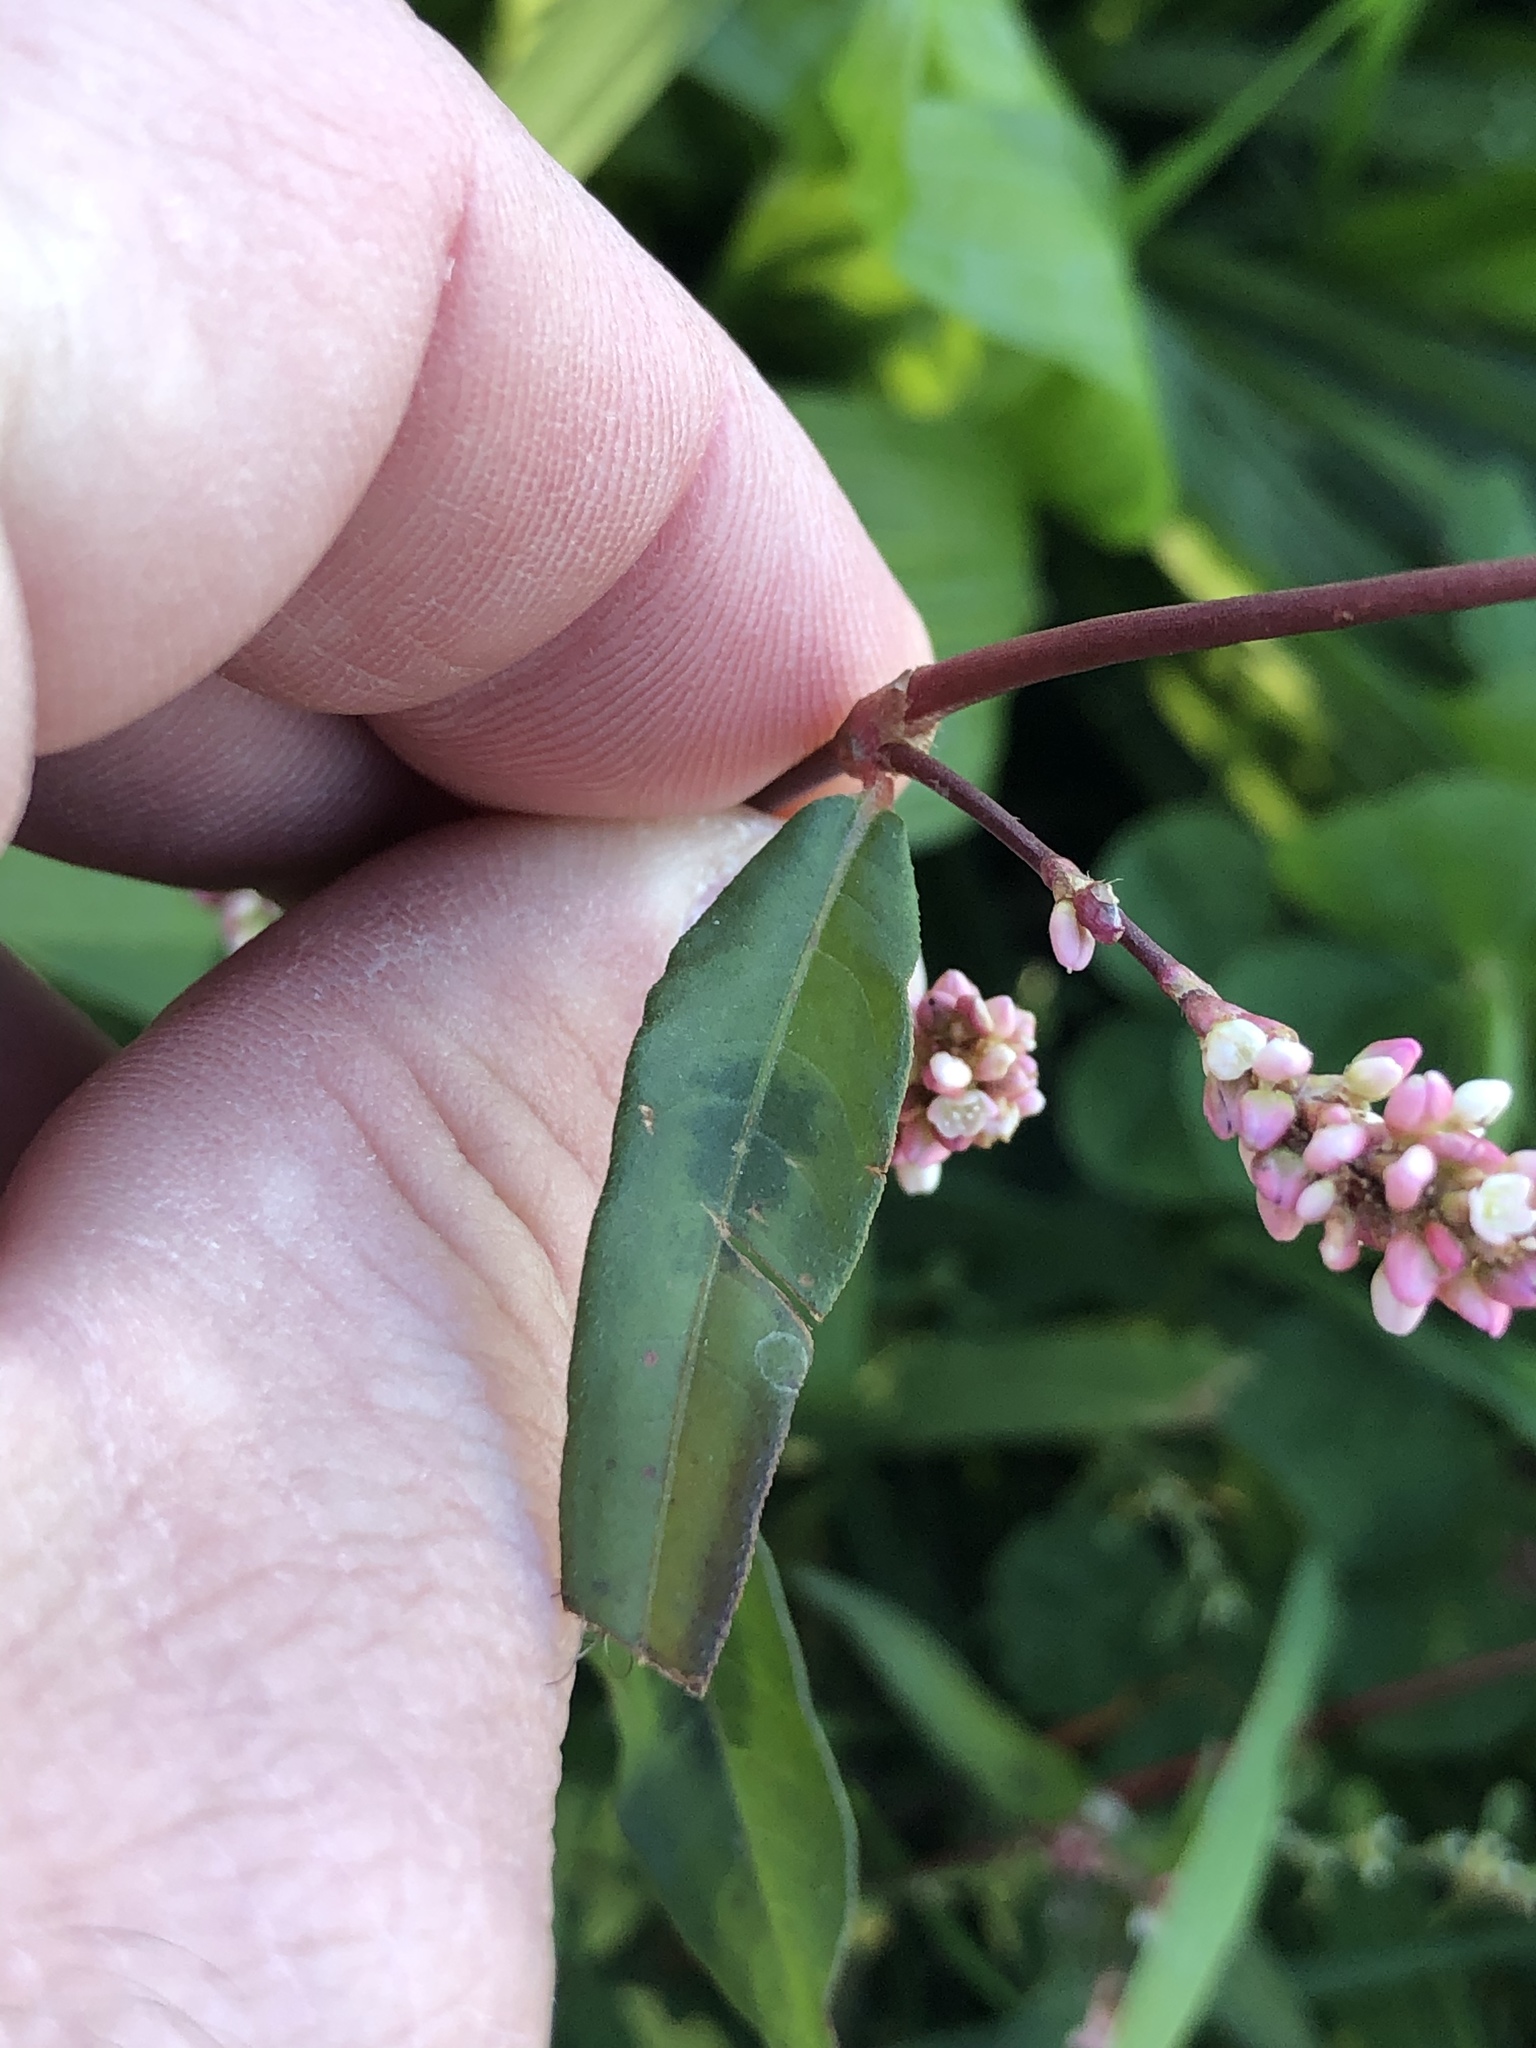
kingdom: Plantae
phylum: Tracheophyta
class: Magnoliopsida
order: Caryophyllales
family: Polygonaceae
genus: Persicaria
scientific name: Persicaria maculosa
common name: Redshank
